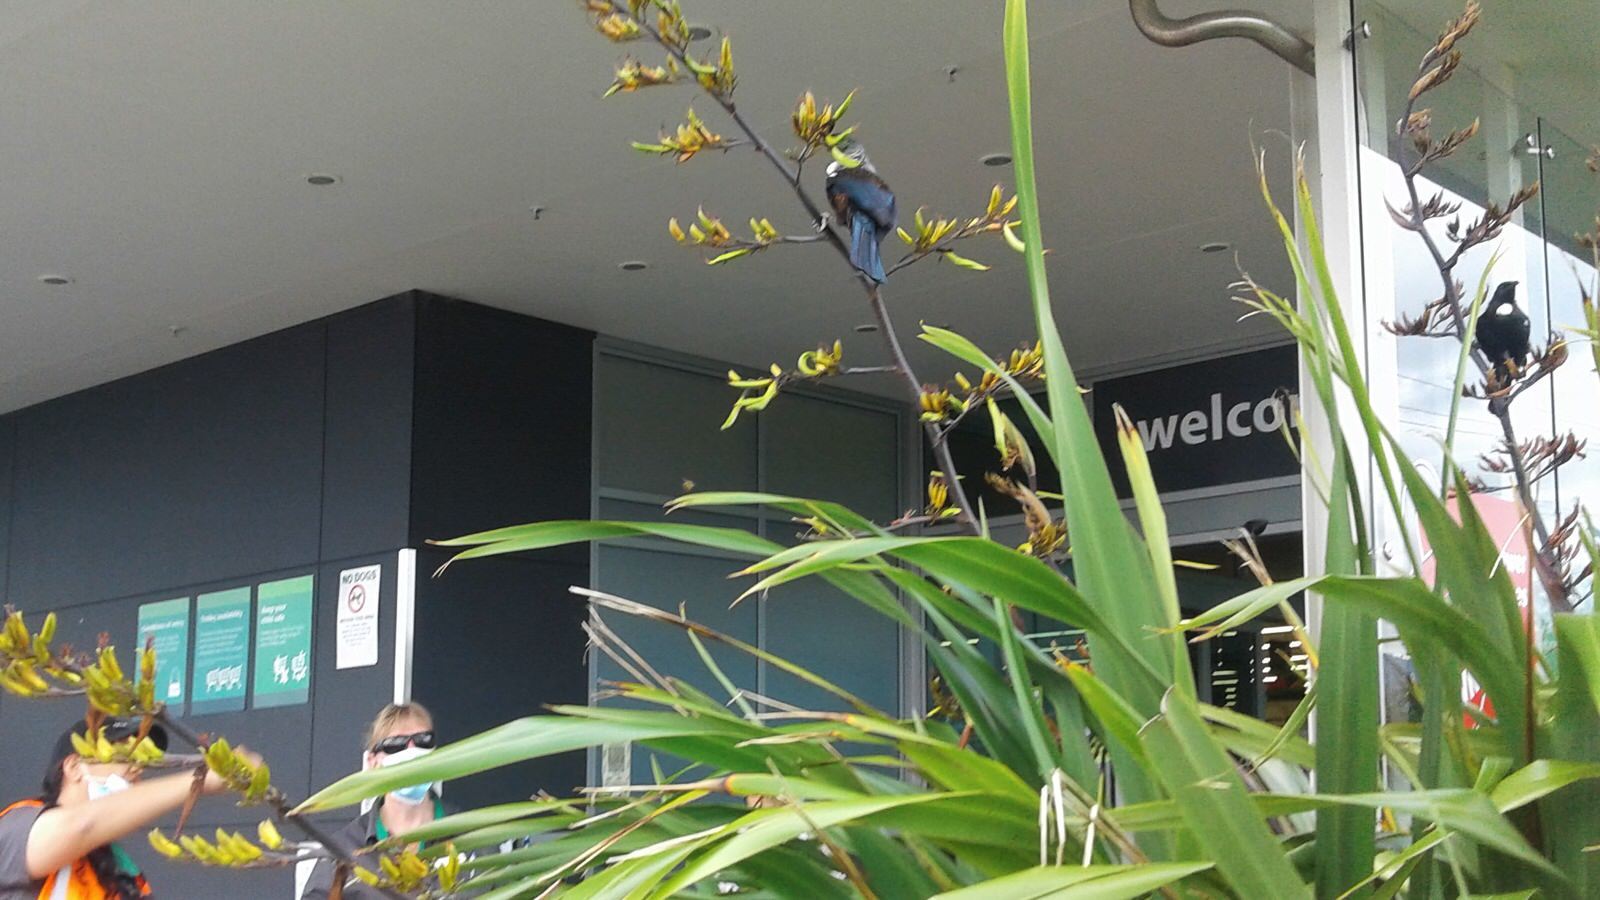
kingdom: Animalia
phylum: Chordata
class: Aves
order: Passeriformes
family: Meliphagidae
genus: Prosthemadera
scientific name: Prosthemadera novaeseelandiae
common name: Tui
